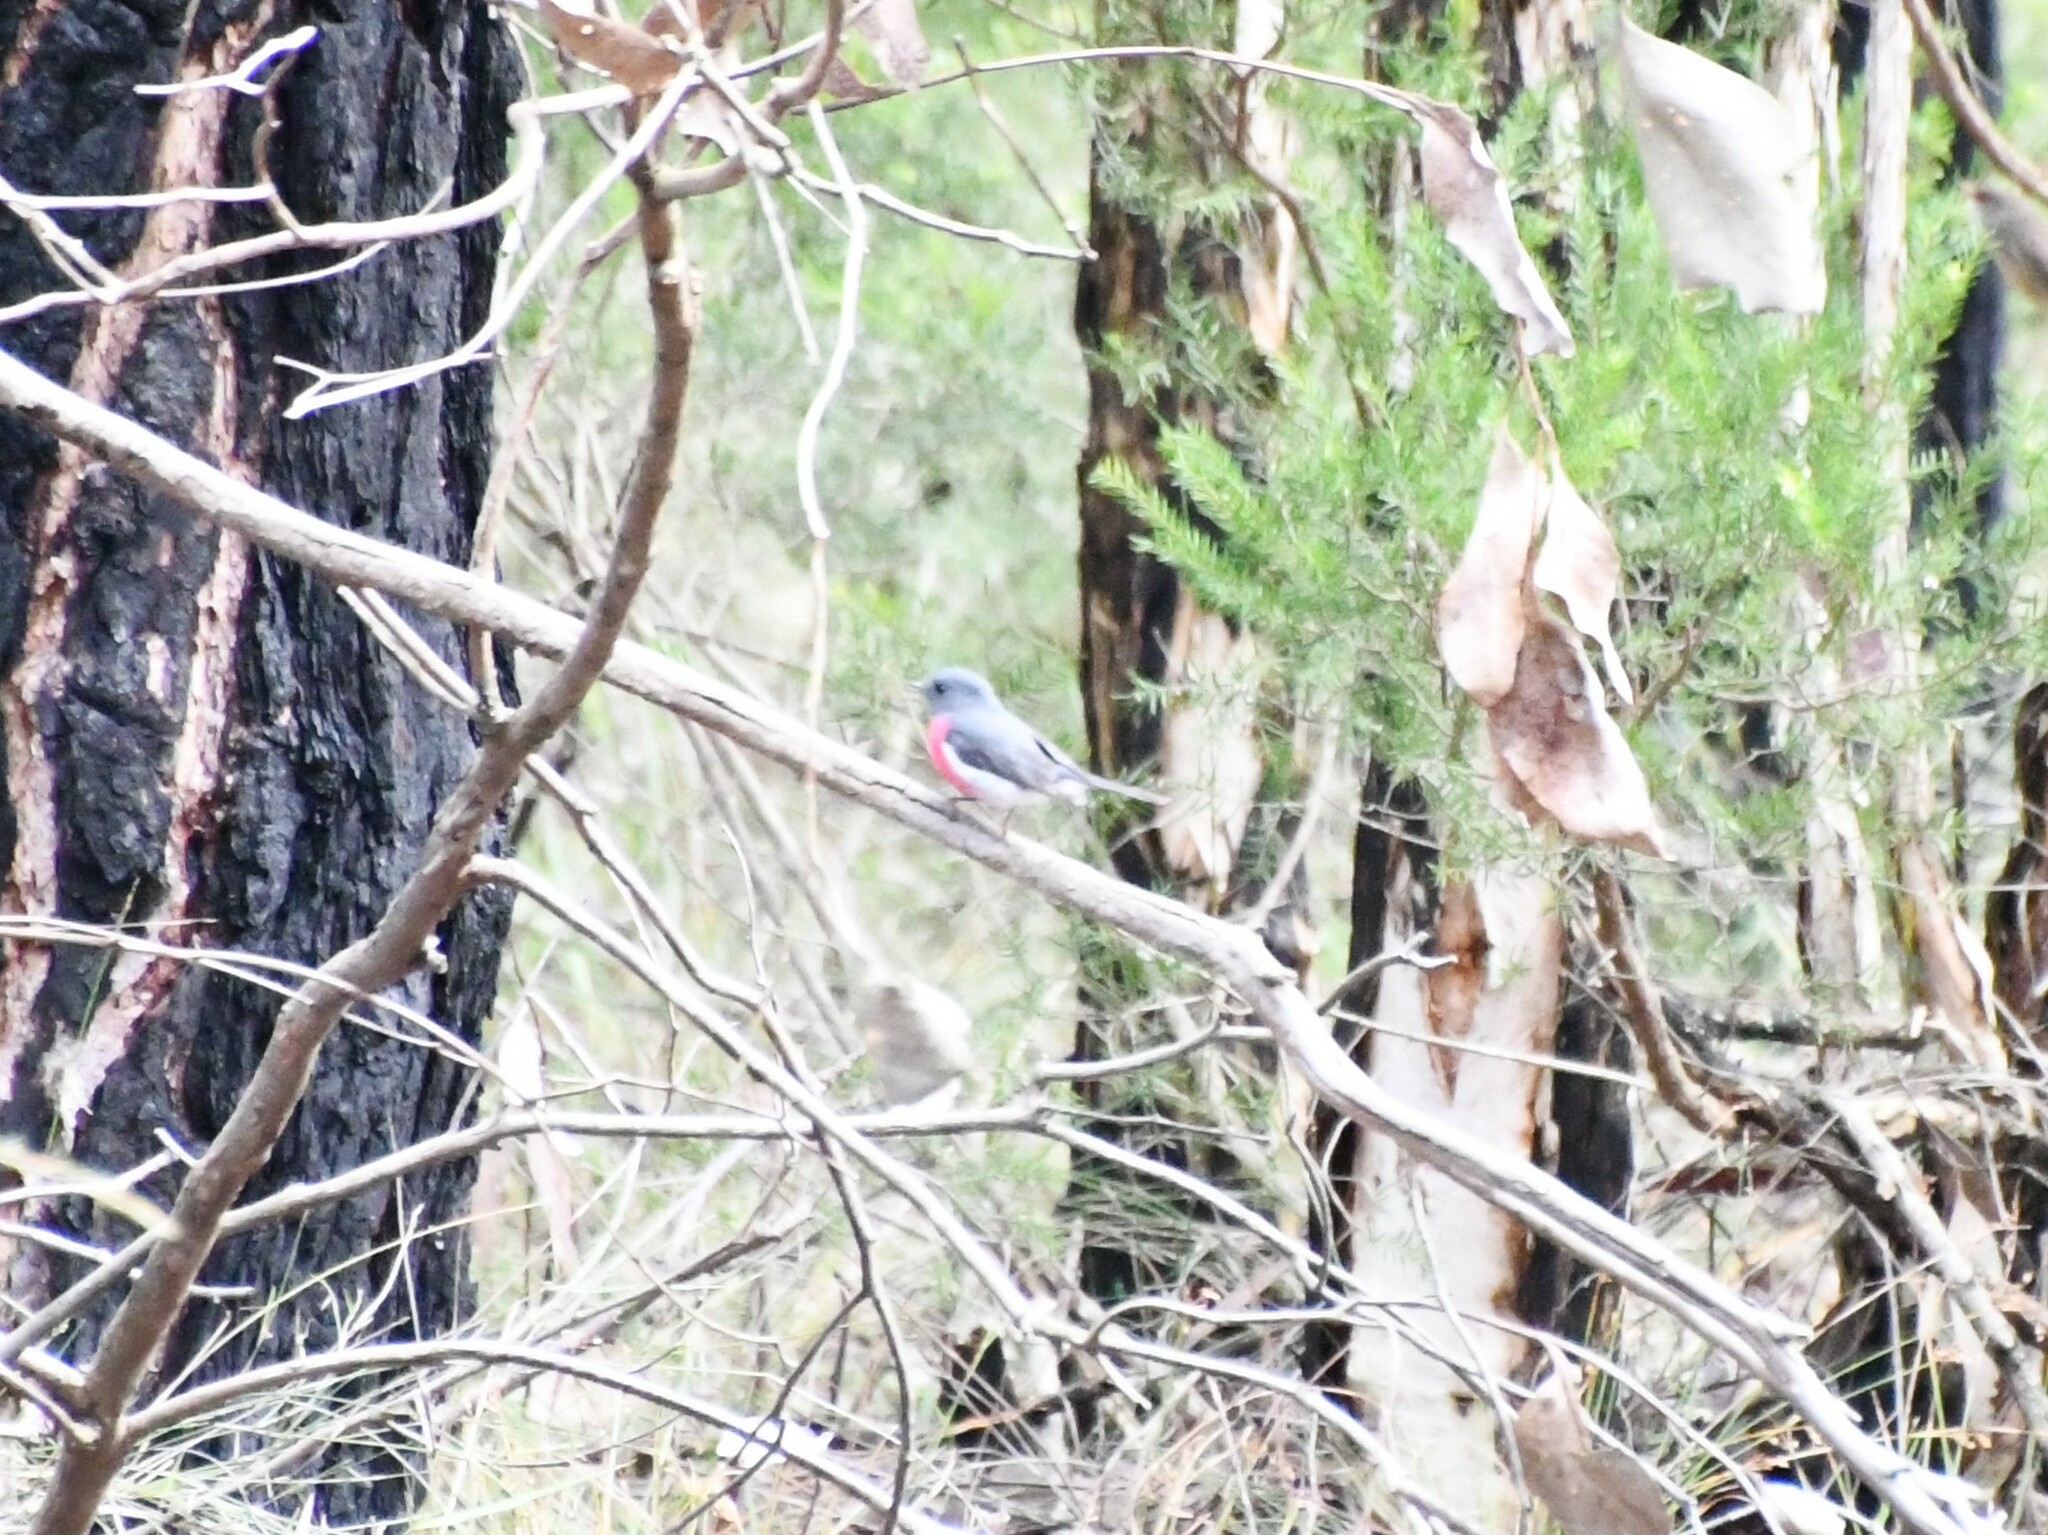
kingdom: Animalia
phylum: Chordata
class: Aves
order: Passeriformes
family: Petroicidae
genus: Petroica
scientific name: Petroica rosea
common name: Rose robin
